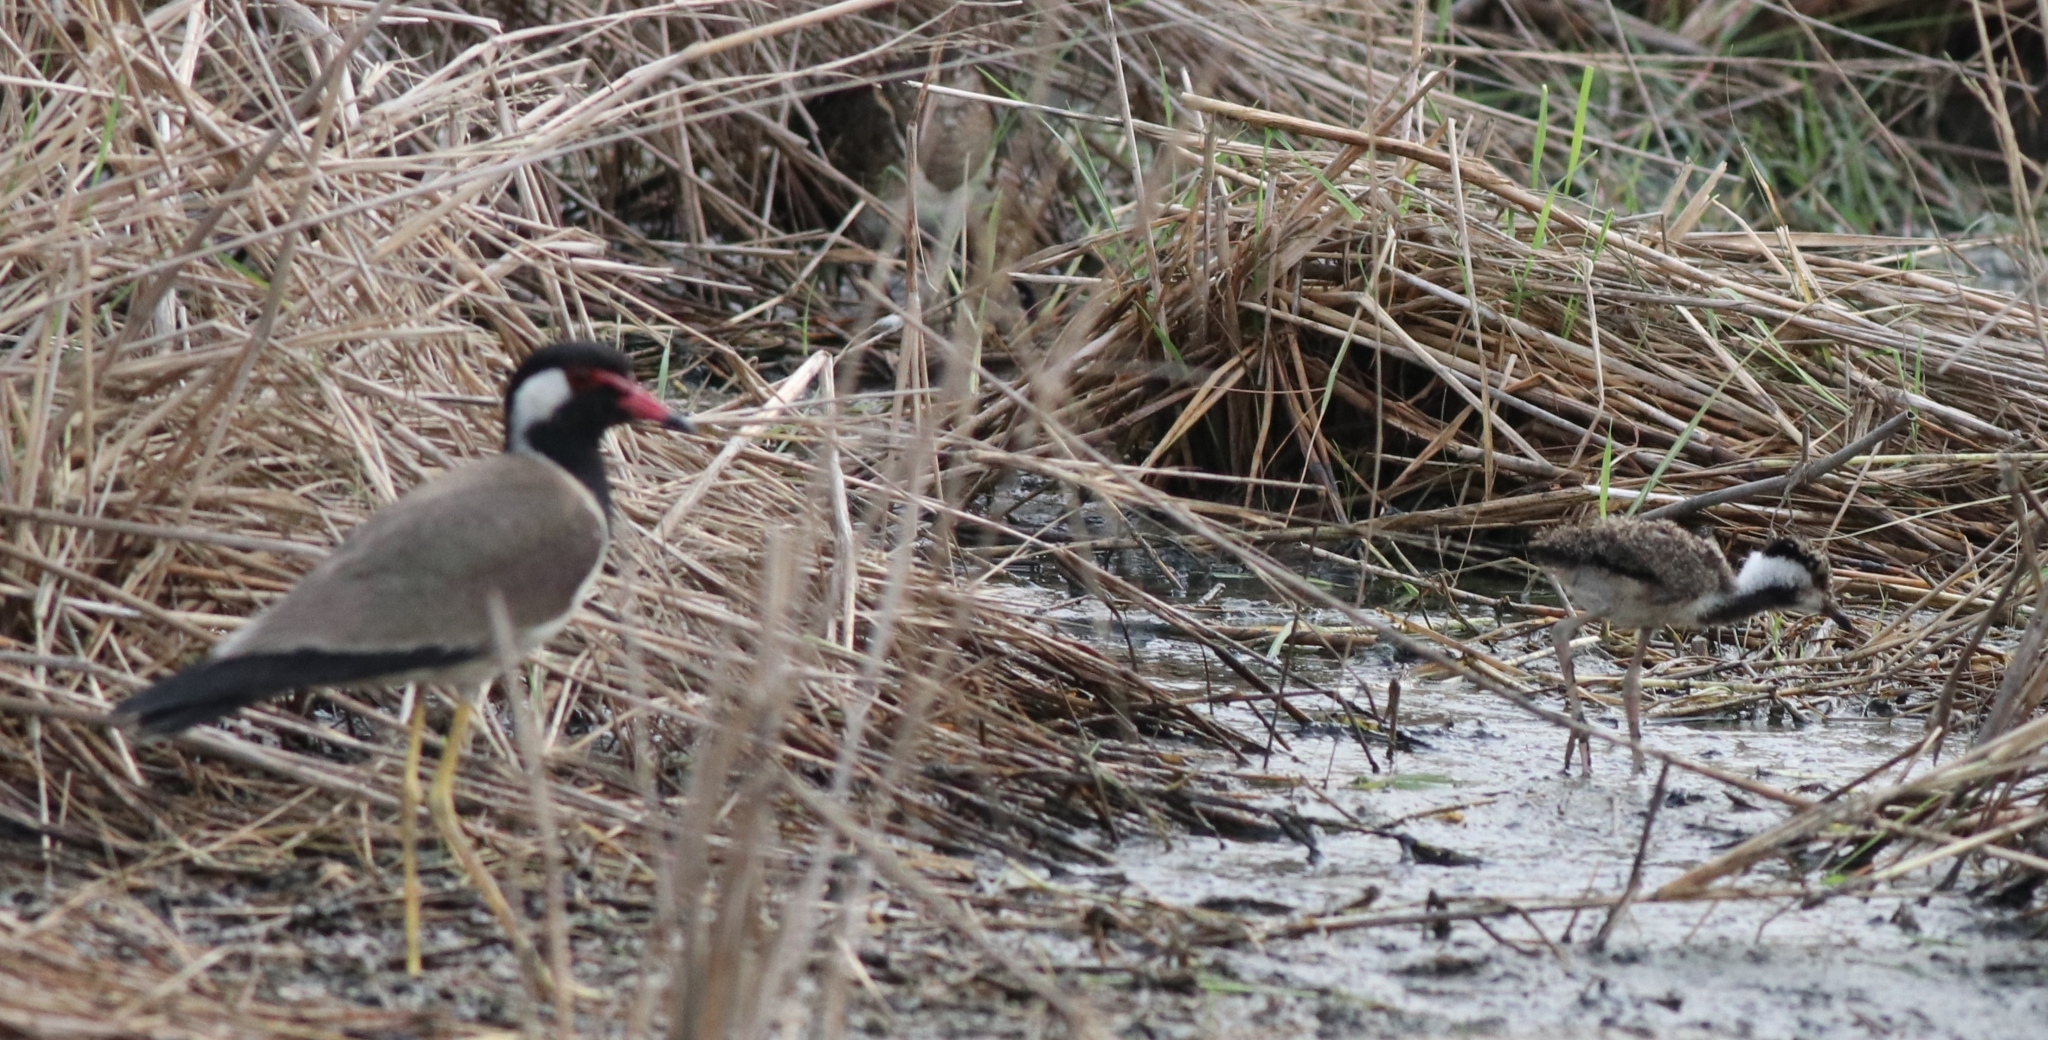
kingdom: Animalia
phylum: Chordata
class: Aves
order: Charadriiformes
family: Charadriidae
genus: Vanellus
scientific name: Vanellus indicus
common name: Red-wattled lapwing
